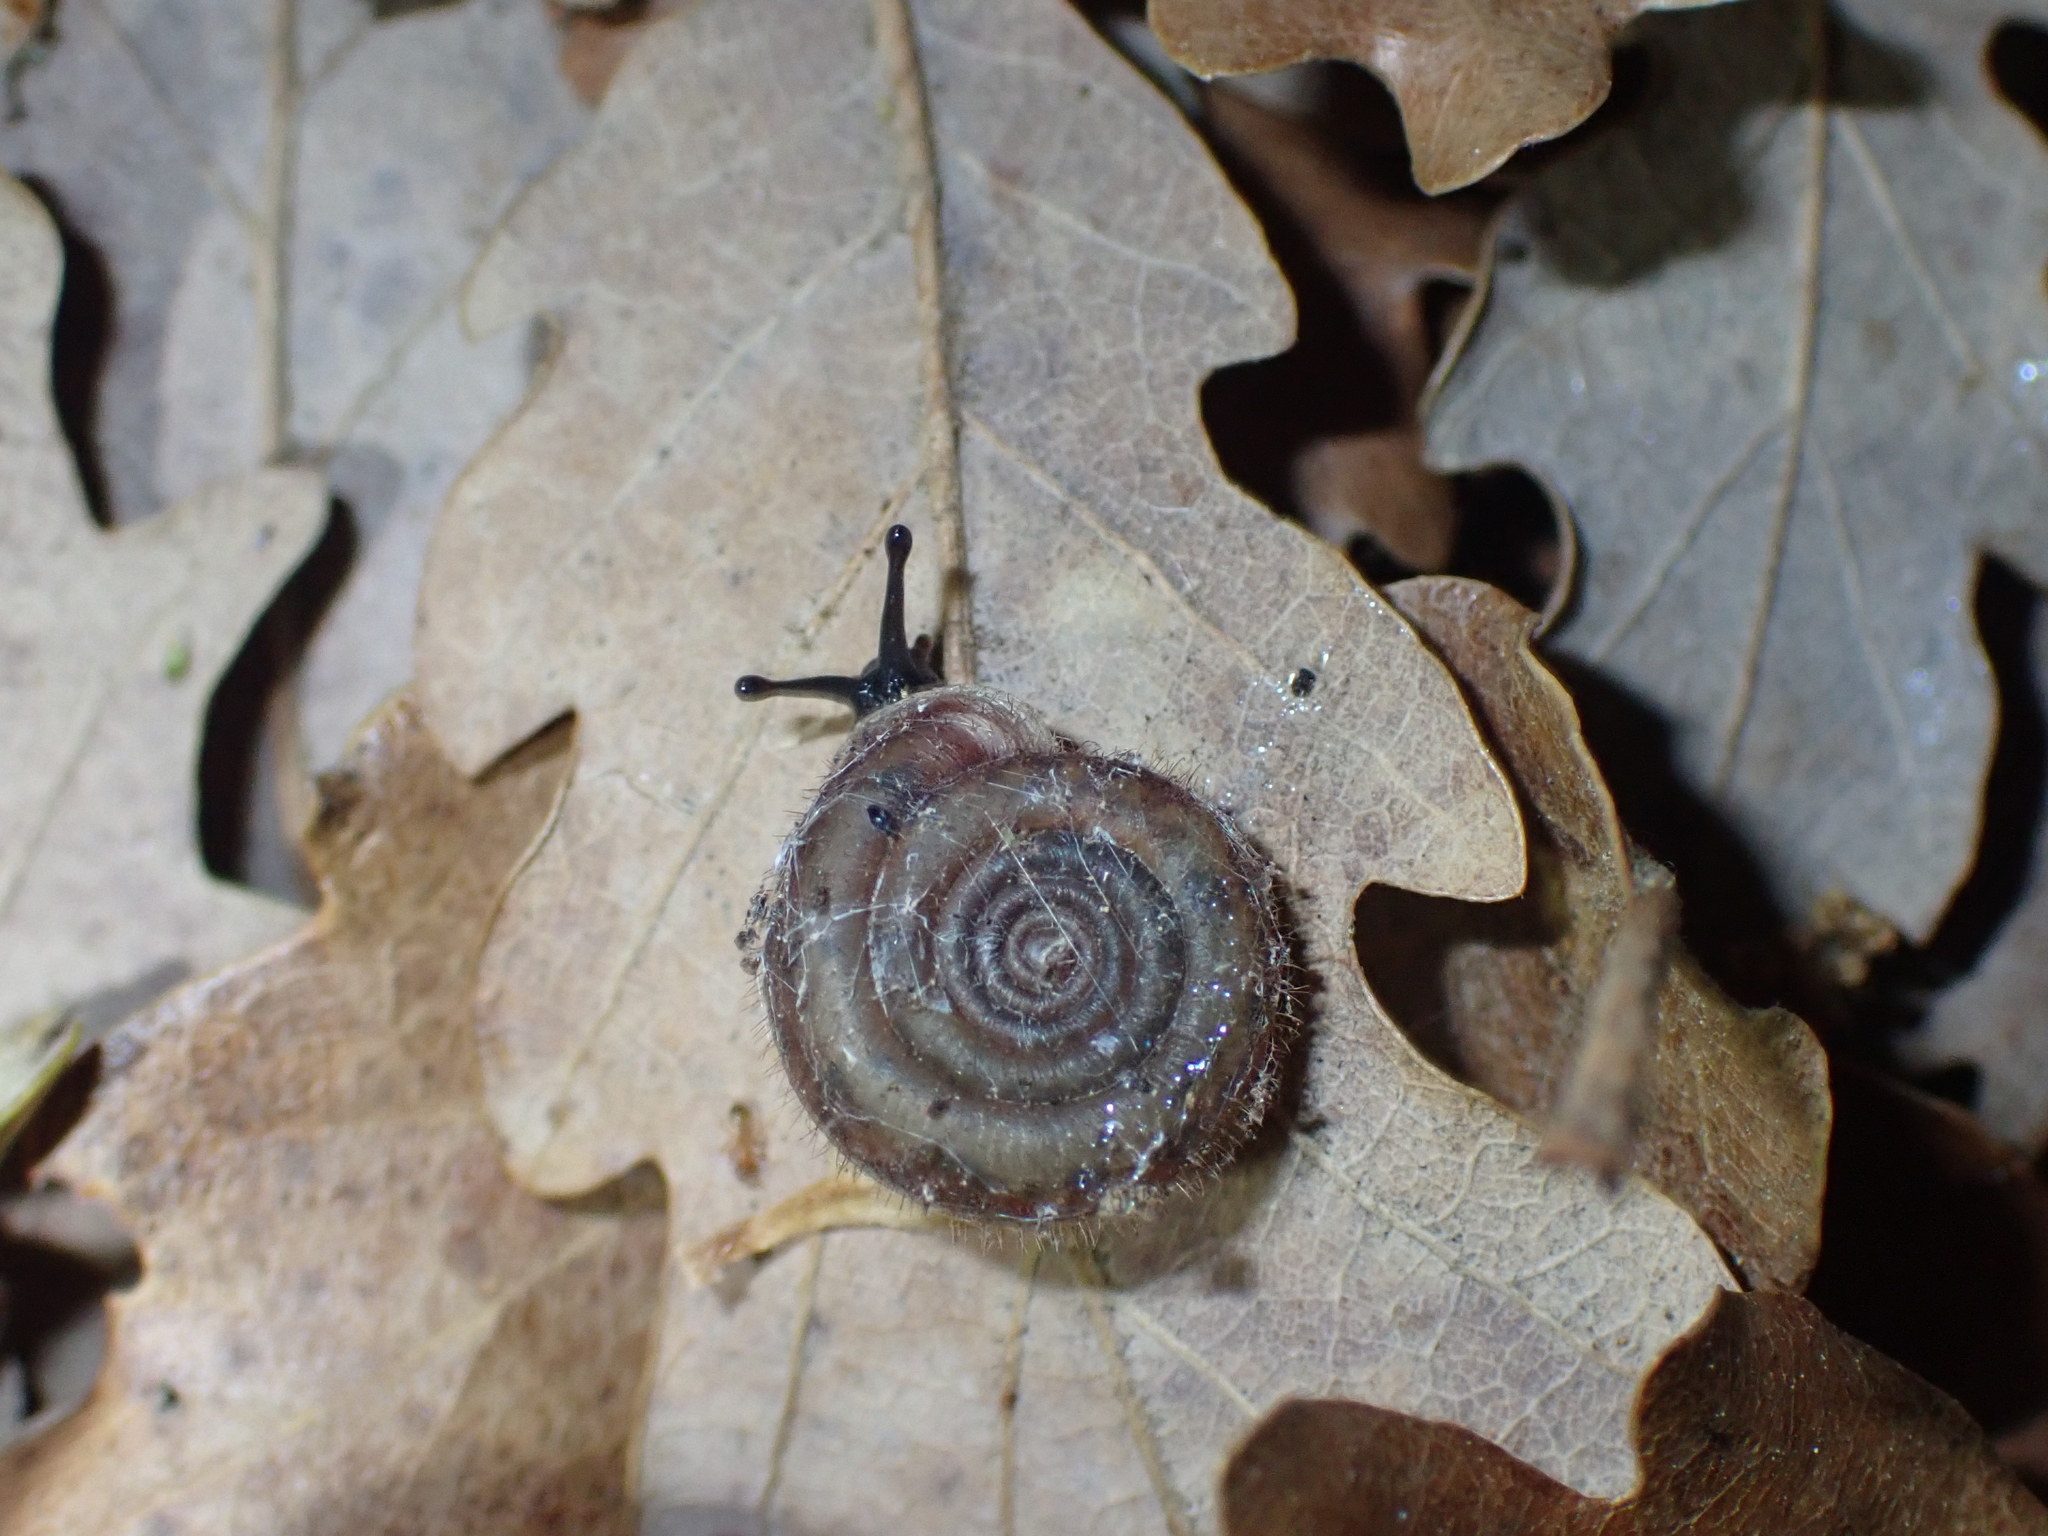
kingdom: Animalia
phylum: Mollusca
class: Gastropoda
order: Stylommatophora
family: Helicodontidae
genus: Helicodonta
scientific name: Helicodonta obvoluta
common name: Cheese snail
